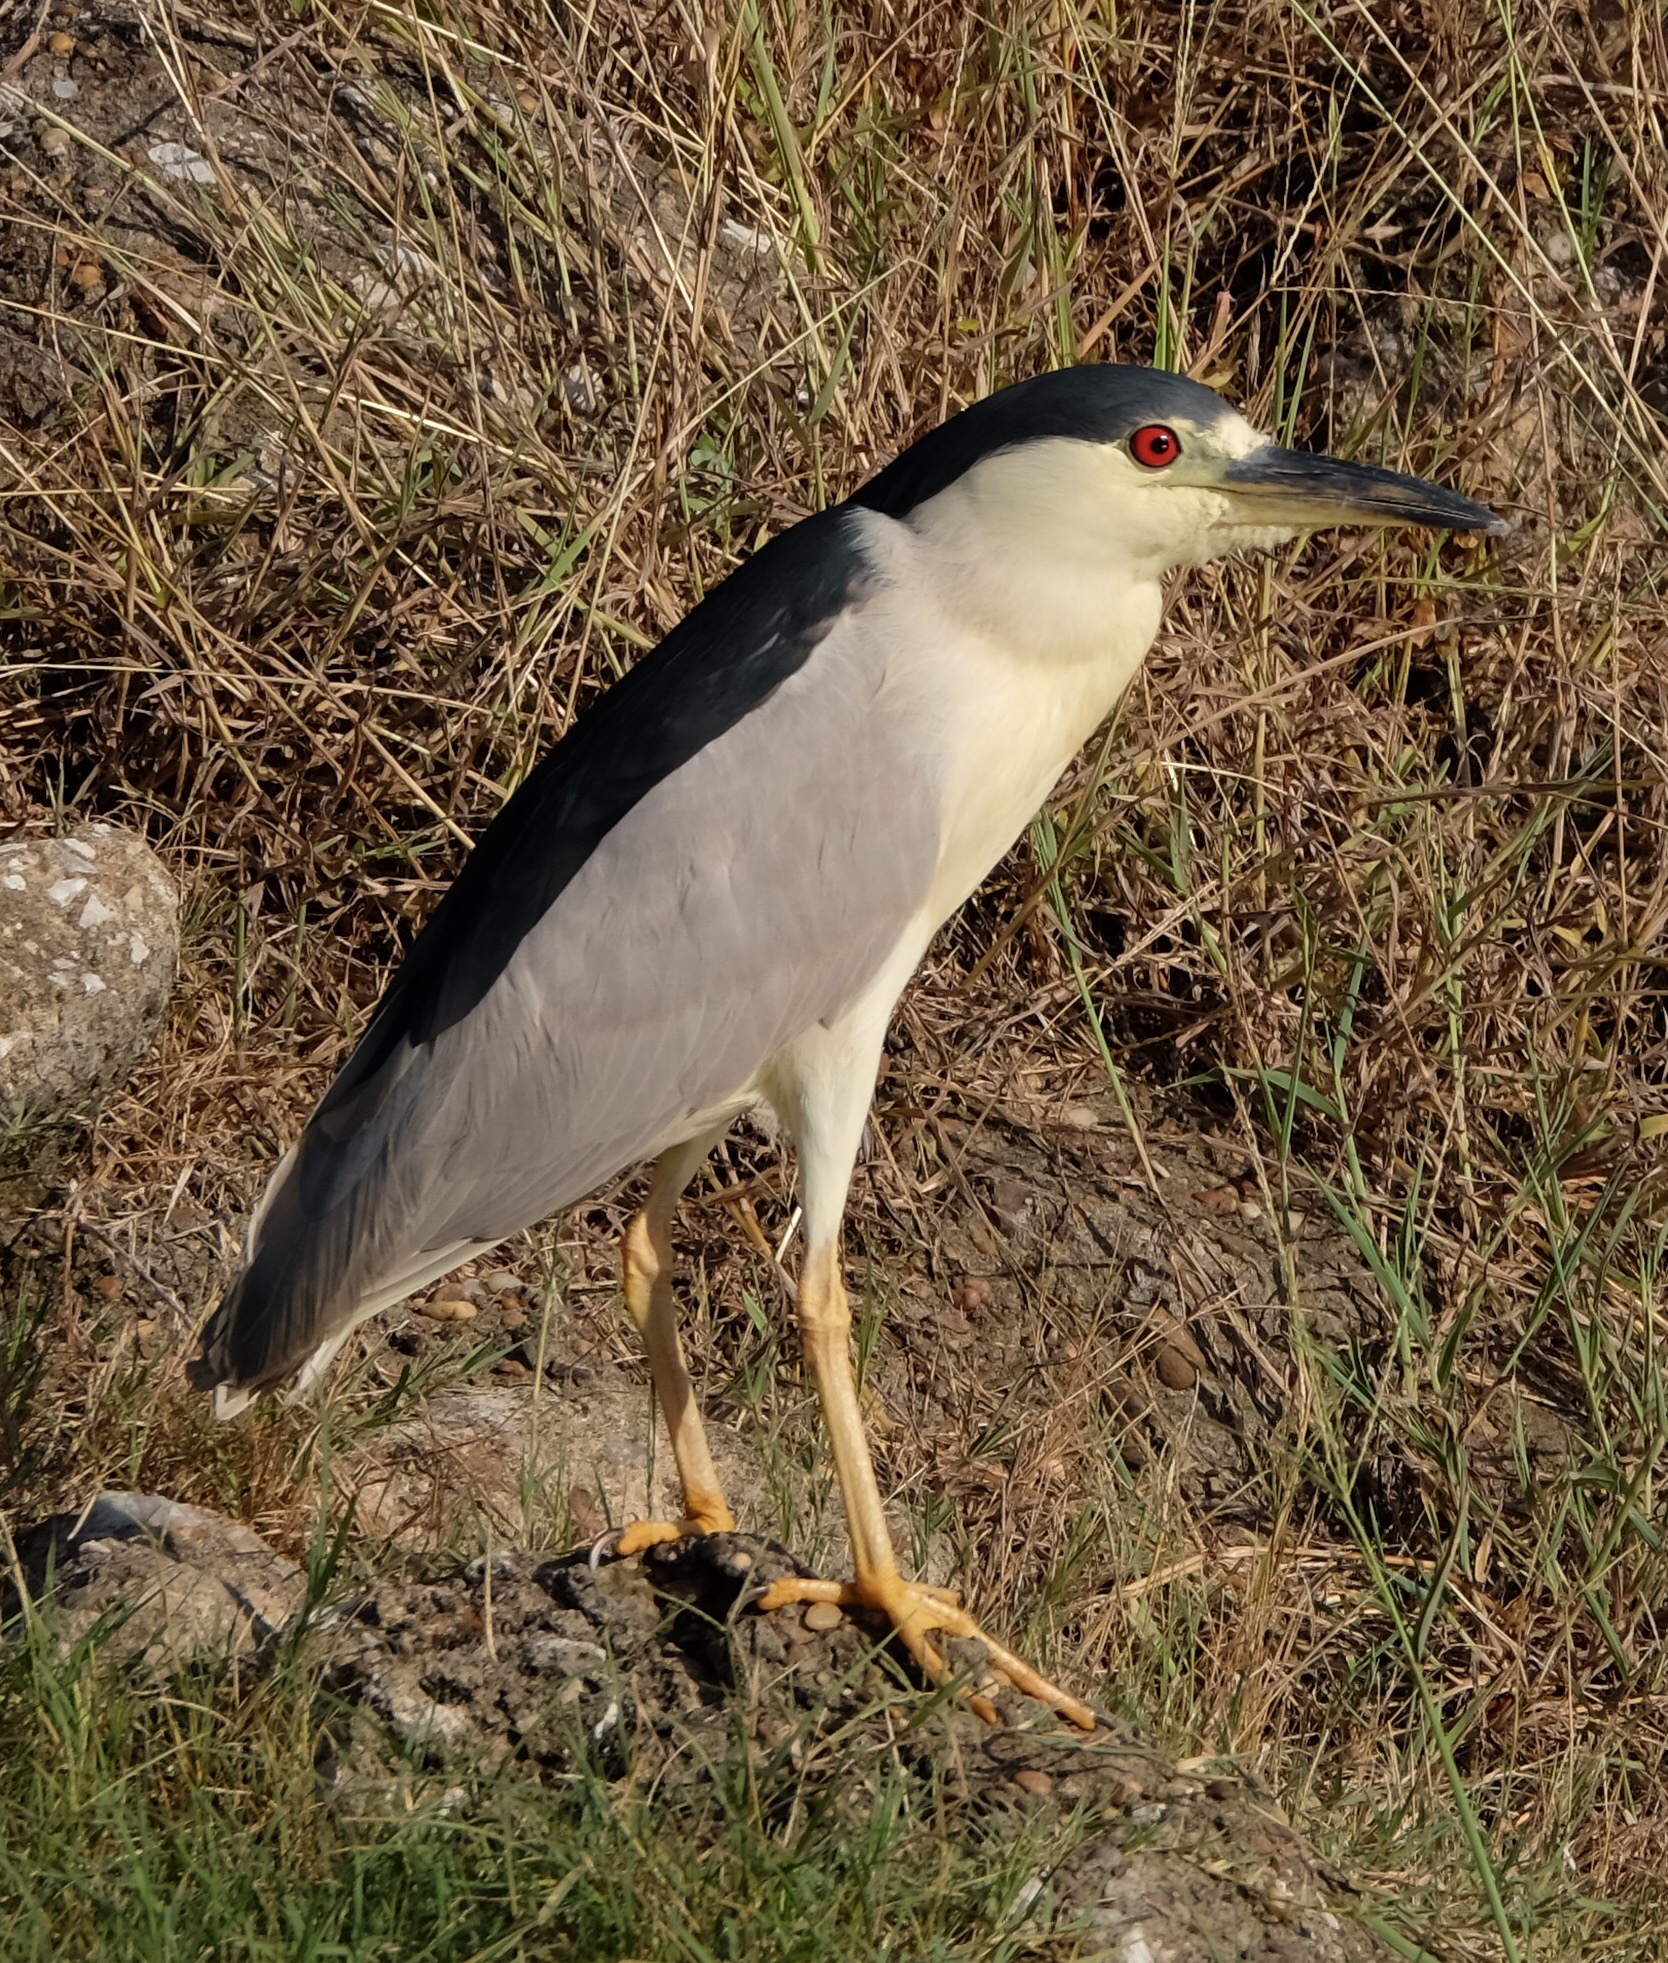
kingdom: Animalia
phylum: Chordata
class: Aves
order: Pelecaniformes
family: Ardeidae
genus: Nycticorax
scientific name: Nycticorax nycticorax
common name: Black-crowned night heron
